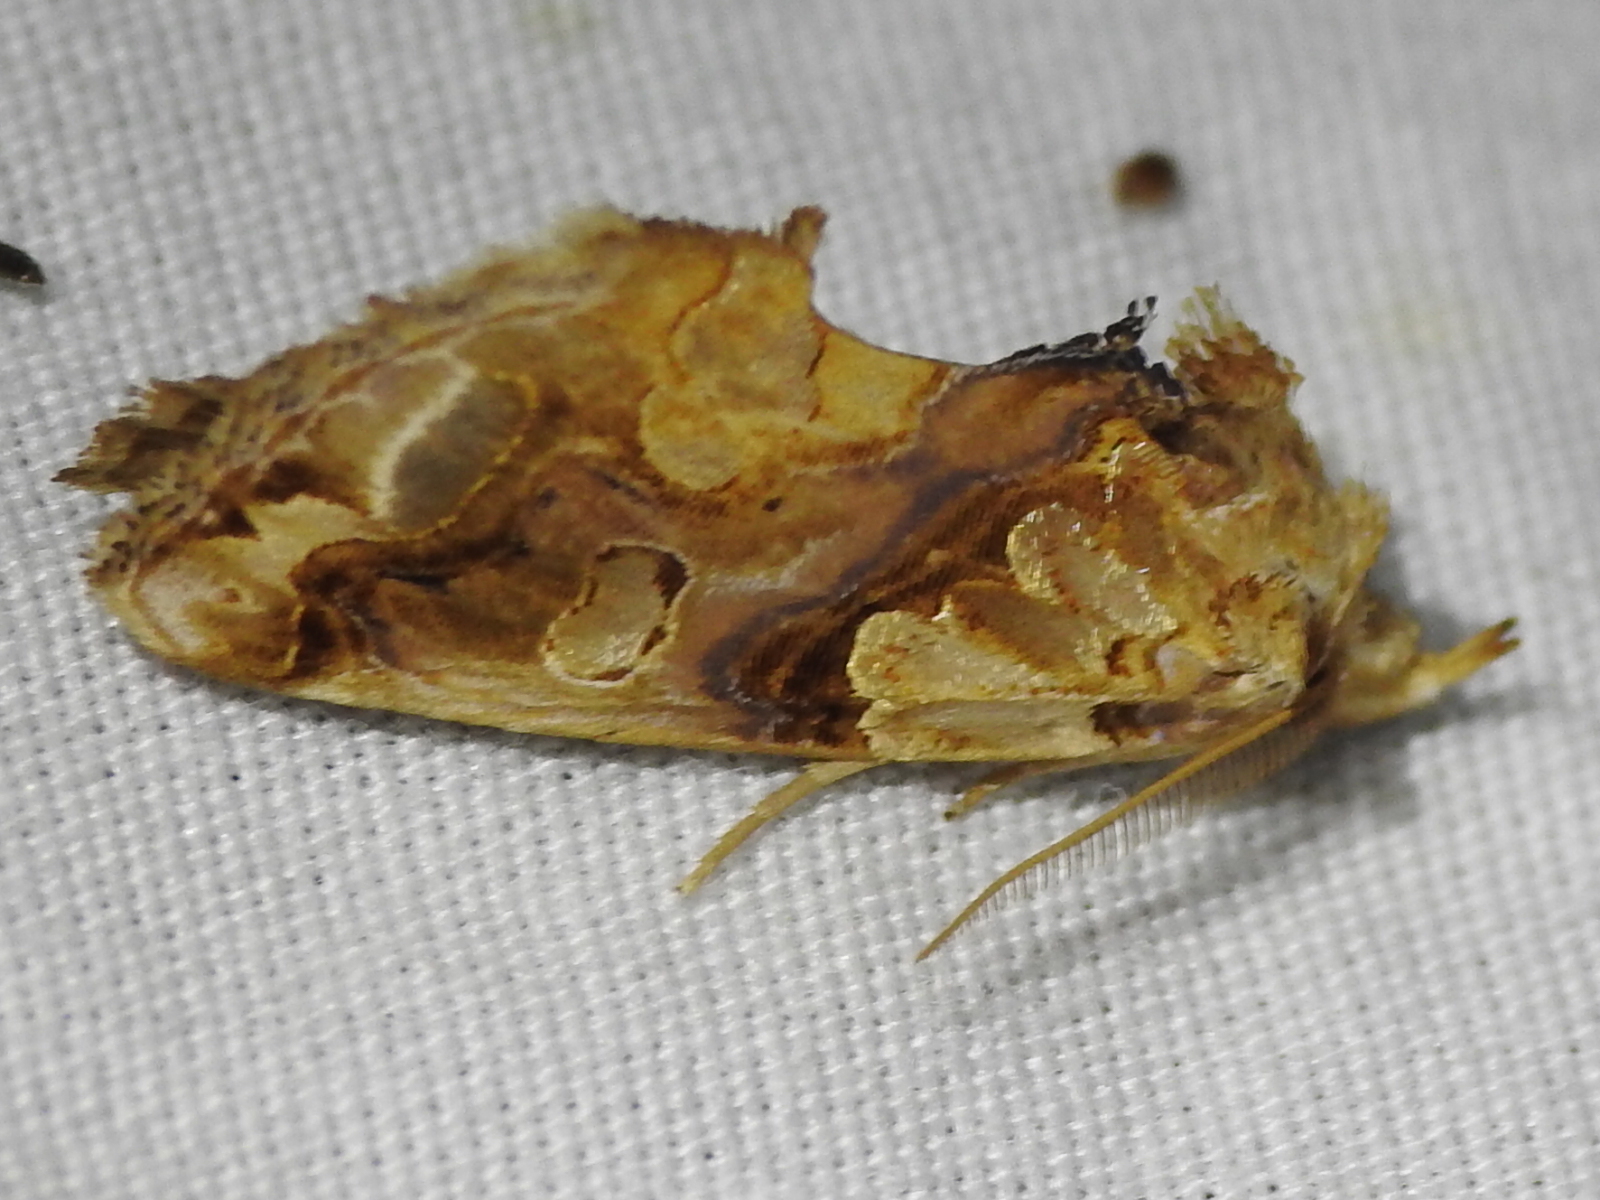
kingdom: Animalia
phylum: Arthropoda
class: Insecta
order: Lepidoptera
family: Erebidae
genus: Plusiodonta
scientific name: Plusiodonta compressipalpis
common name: Moonseed moth
